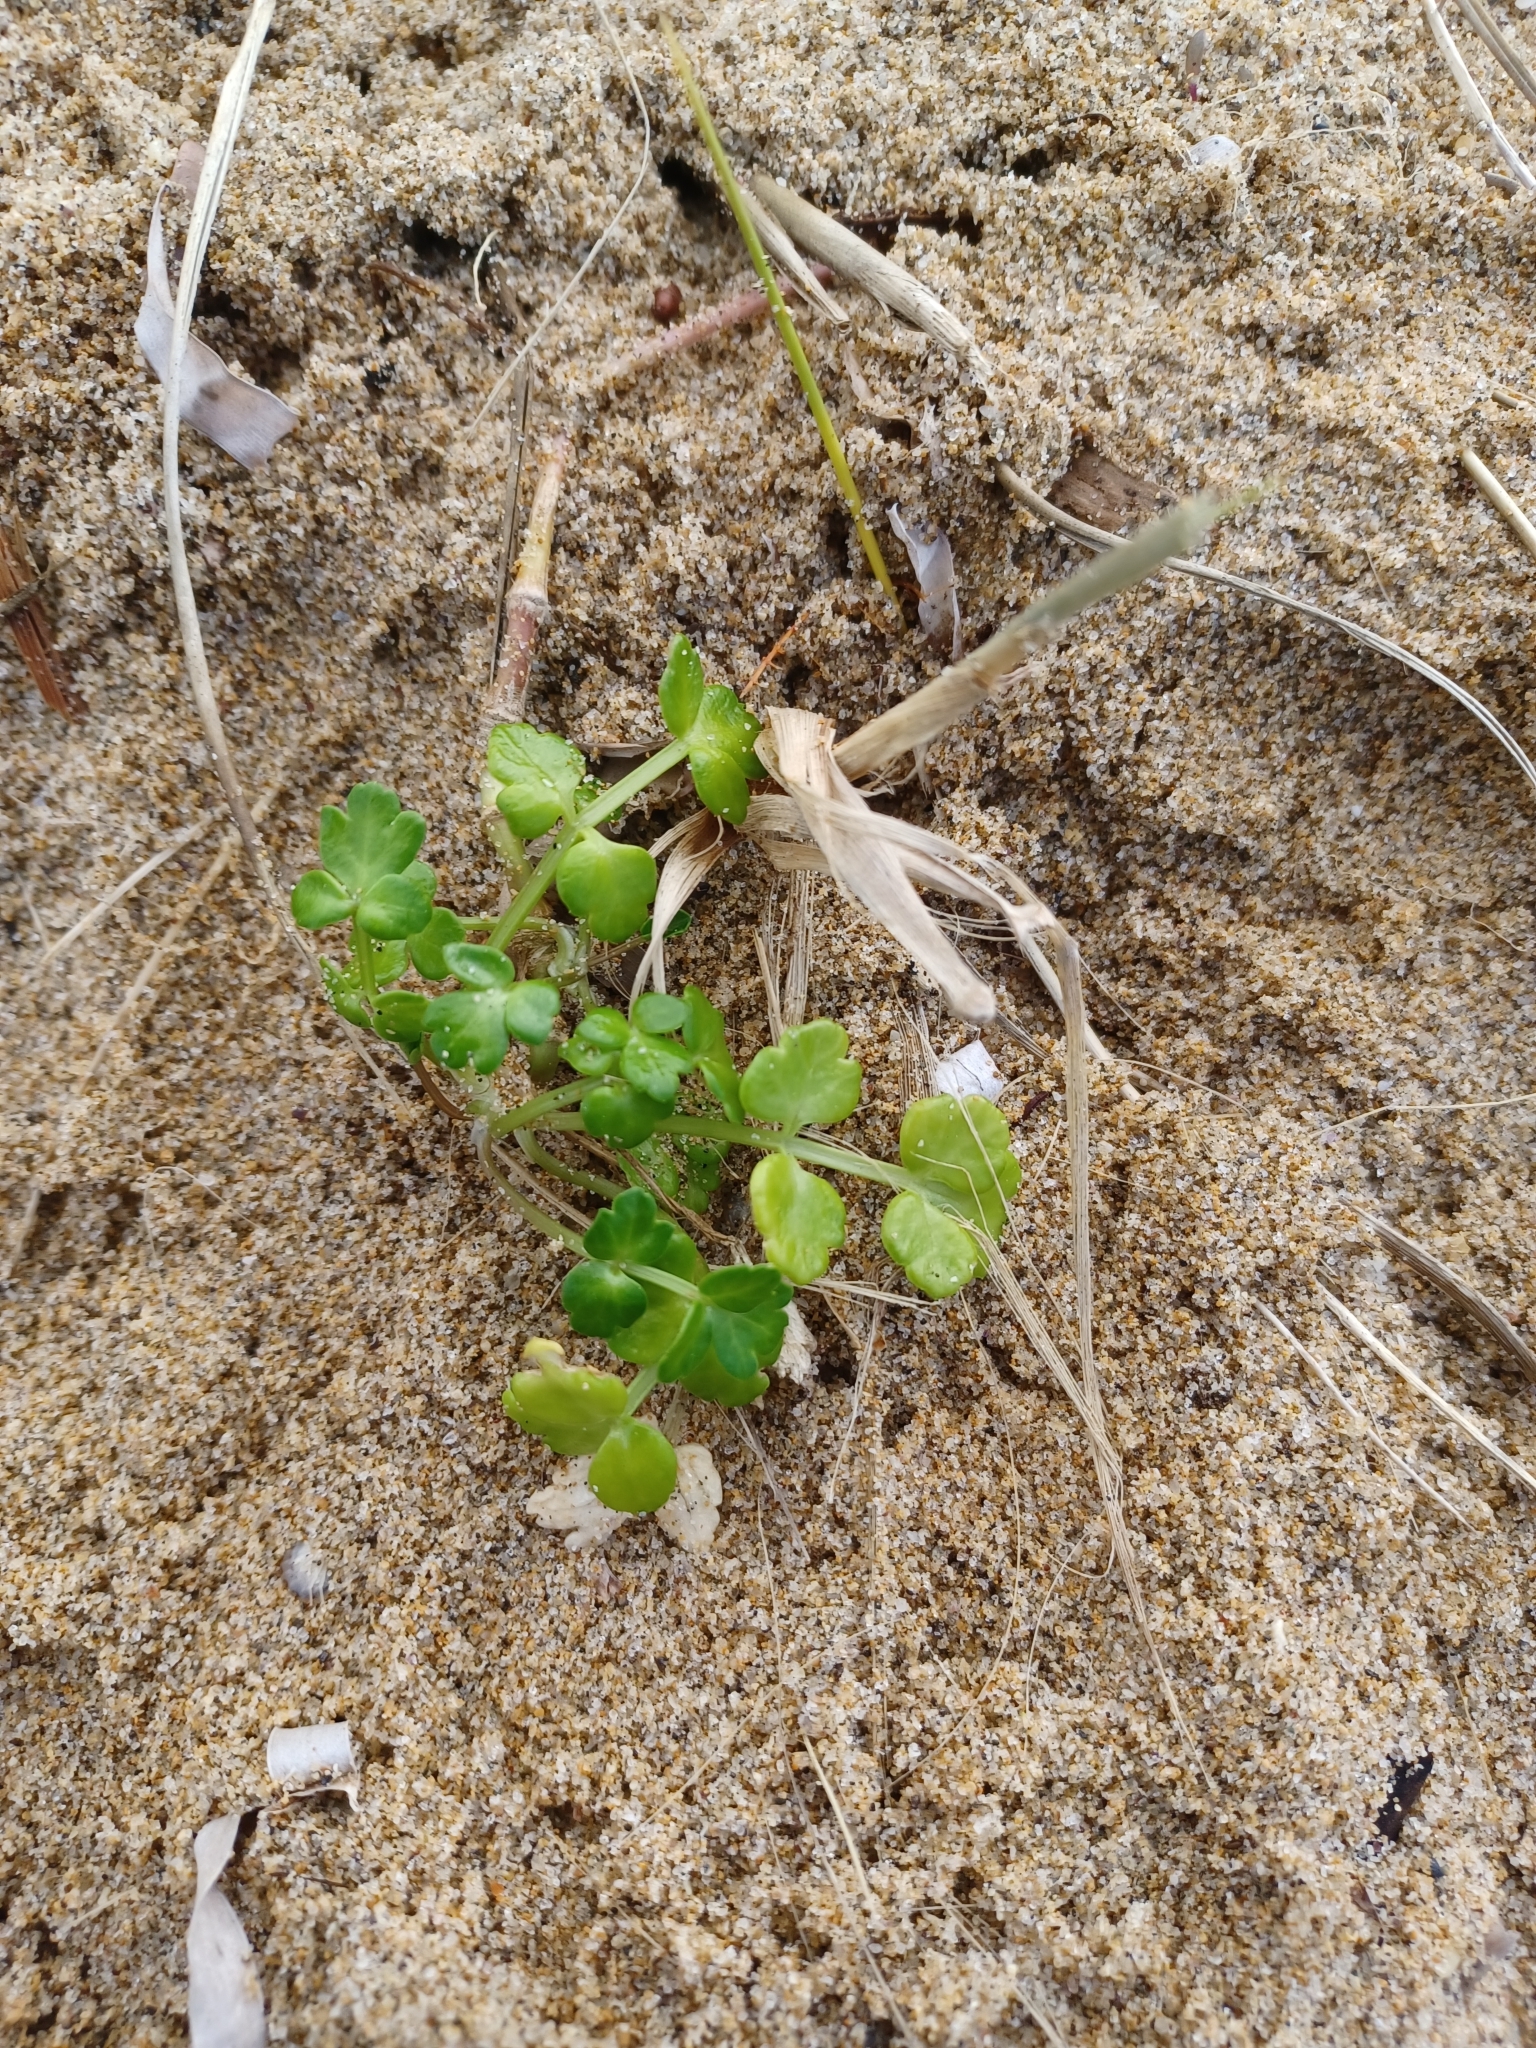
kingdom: Plantae
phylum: Tracheophyta
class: Magnoliopsida
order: Apiales
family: Apiaceae
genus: Apium
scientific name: Apium prostratum
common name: Prostrate marshwort
